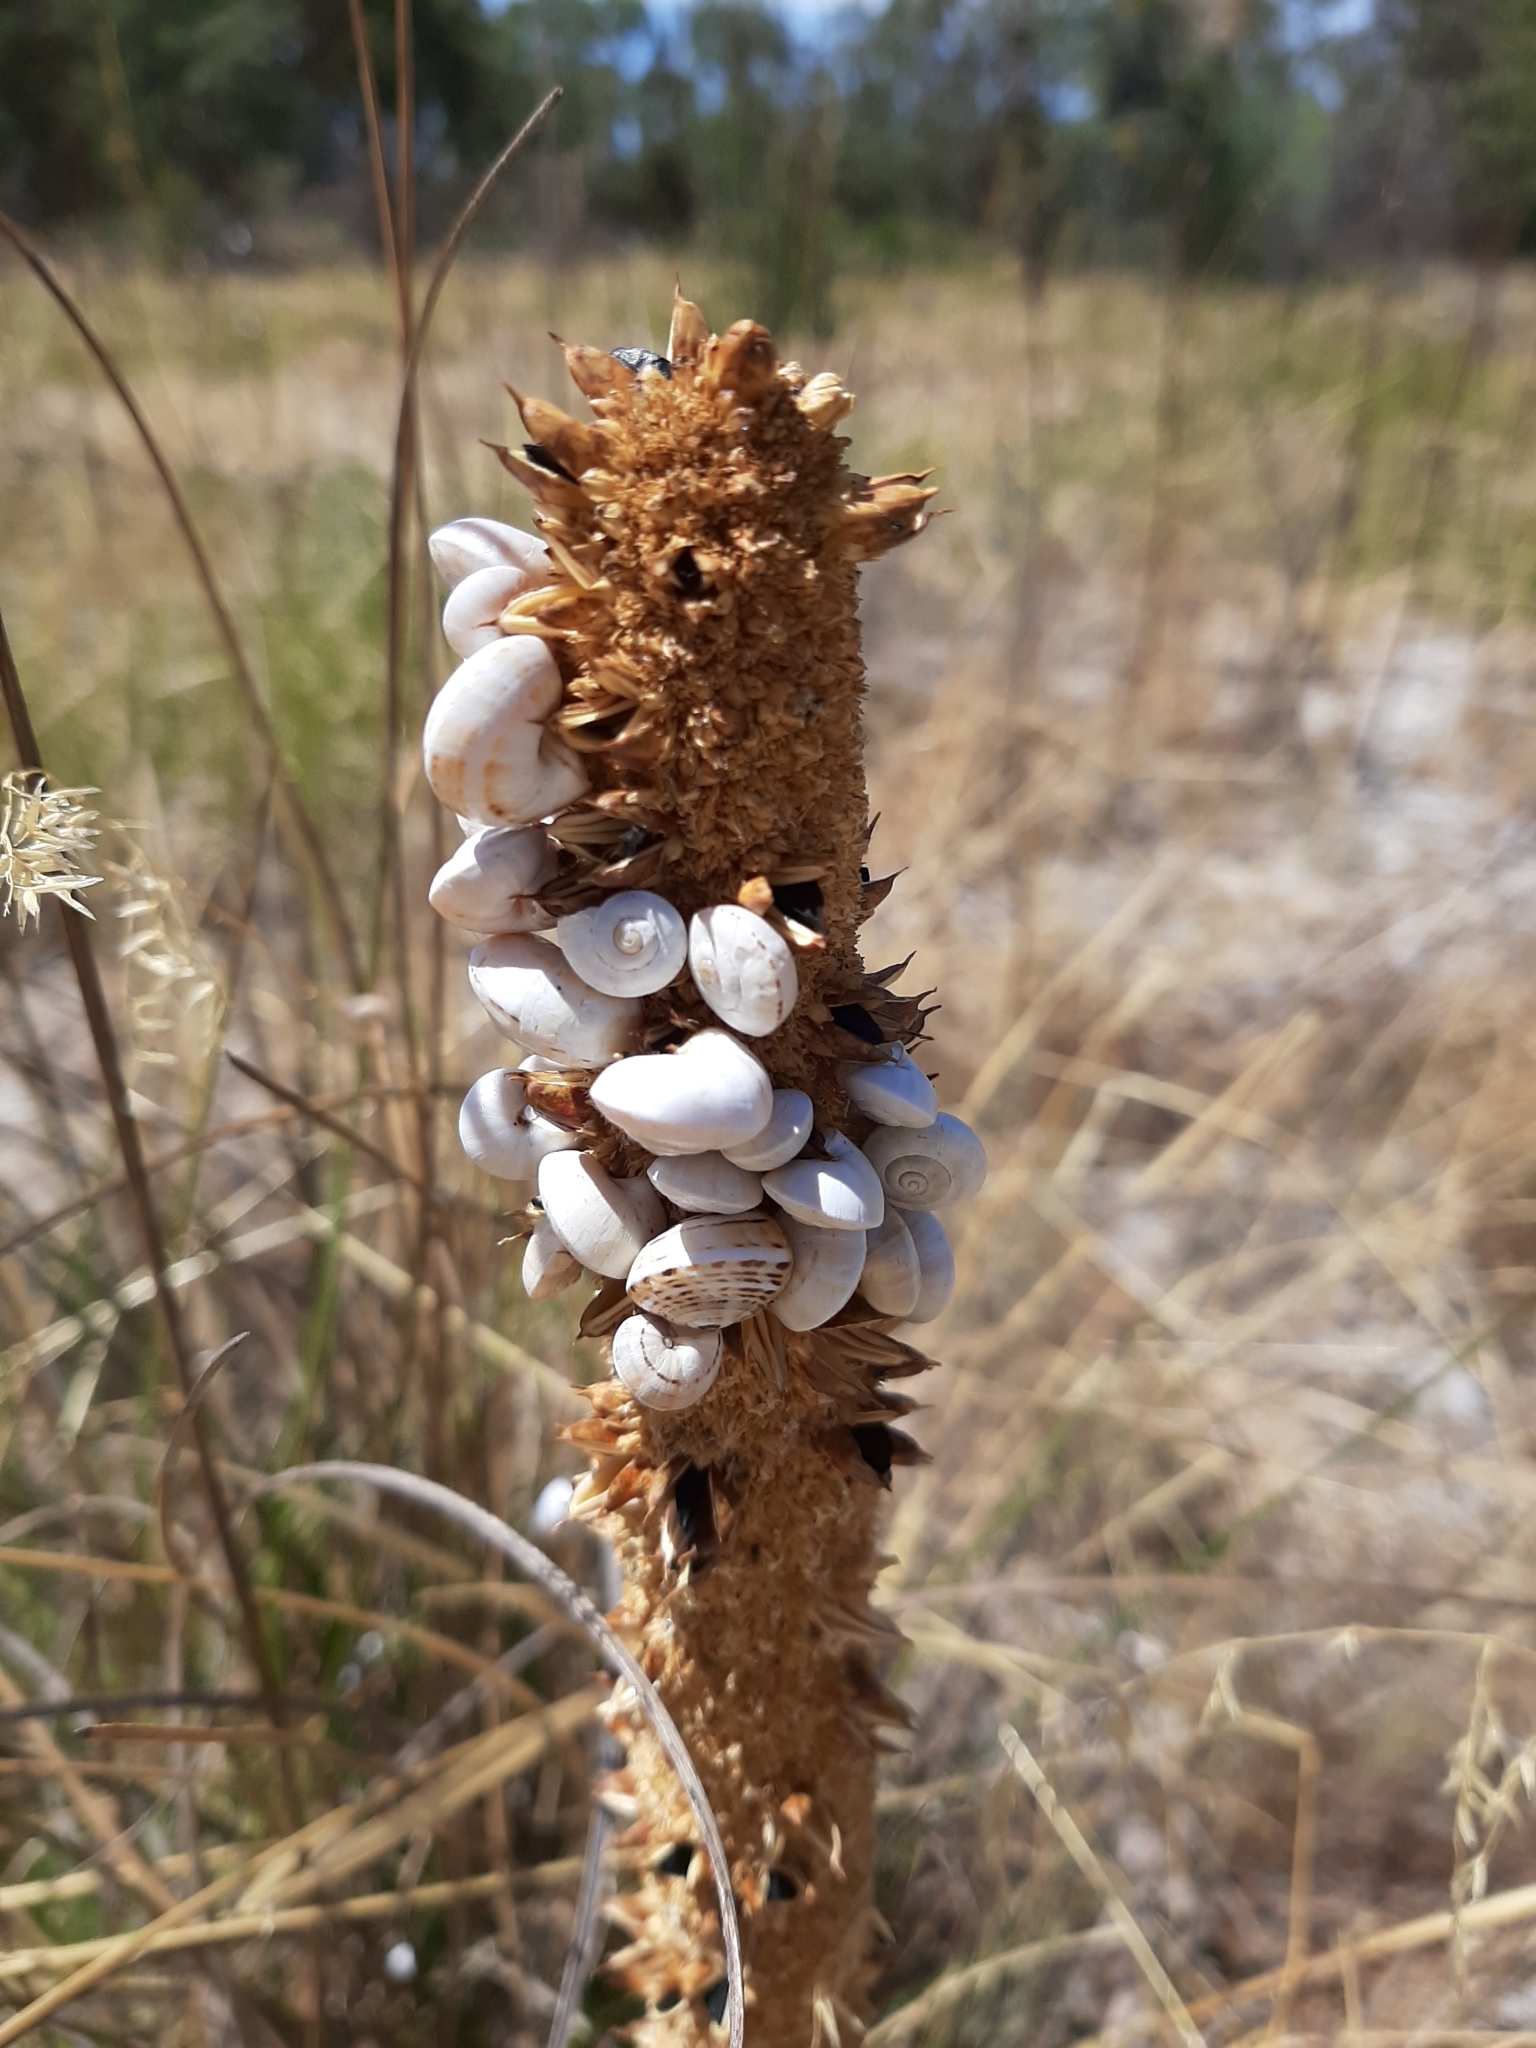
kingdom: Animalia
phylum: Mollusca
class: Gastropoda
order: Stylommatophora
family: Helicidae
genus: Theba
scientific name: Theba pisana
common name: White snail
